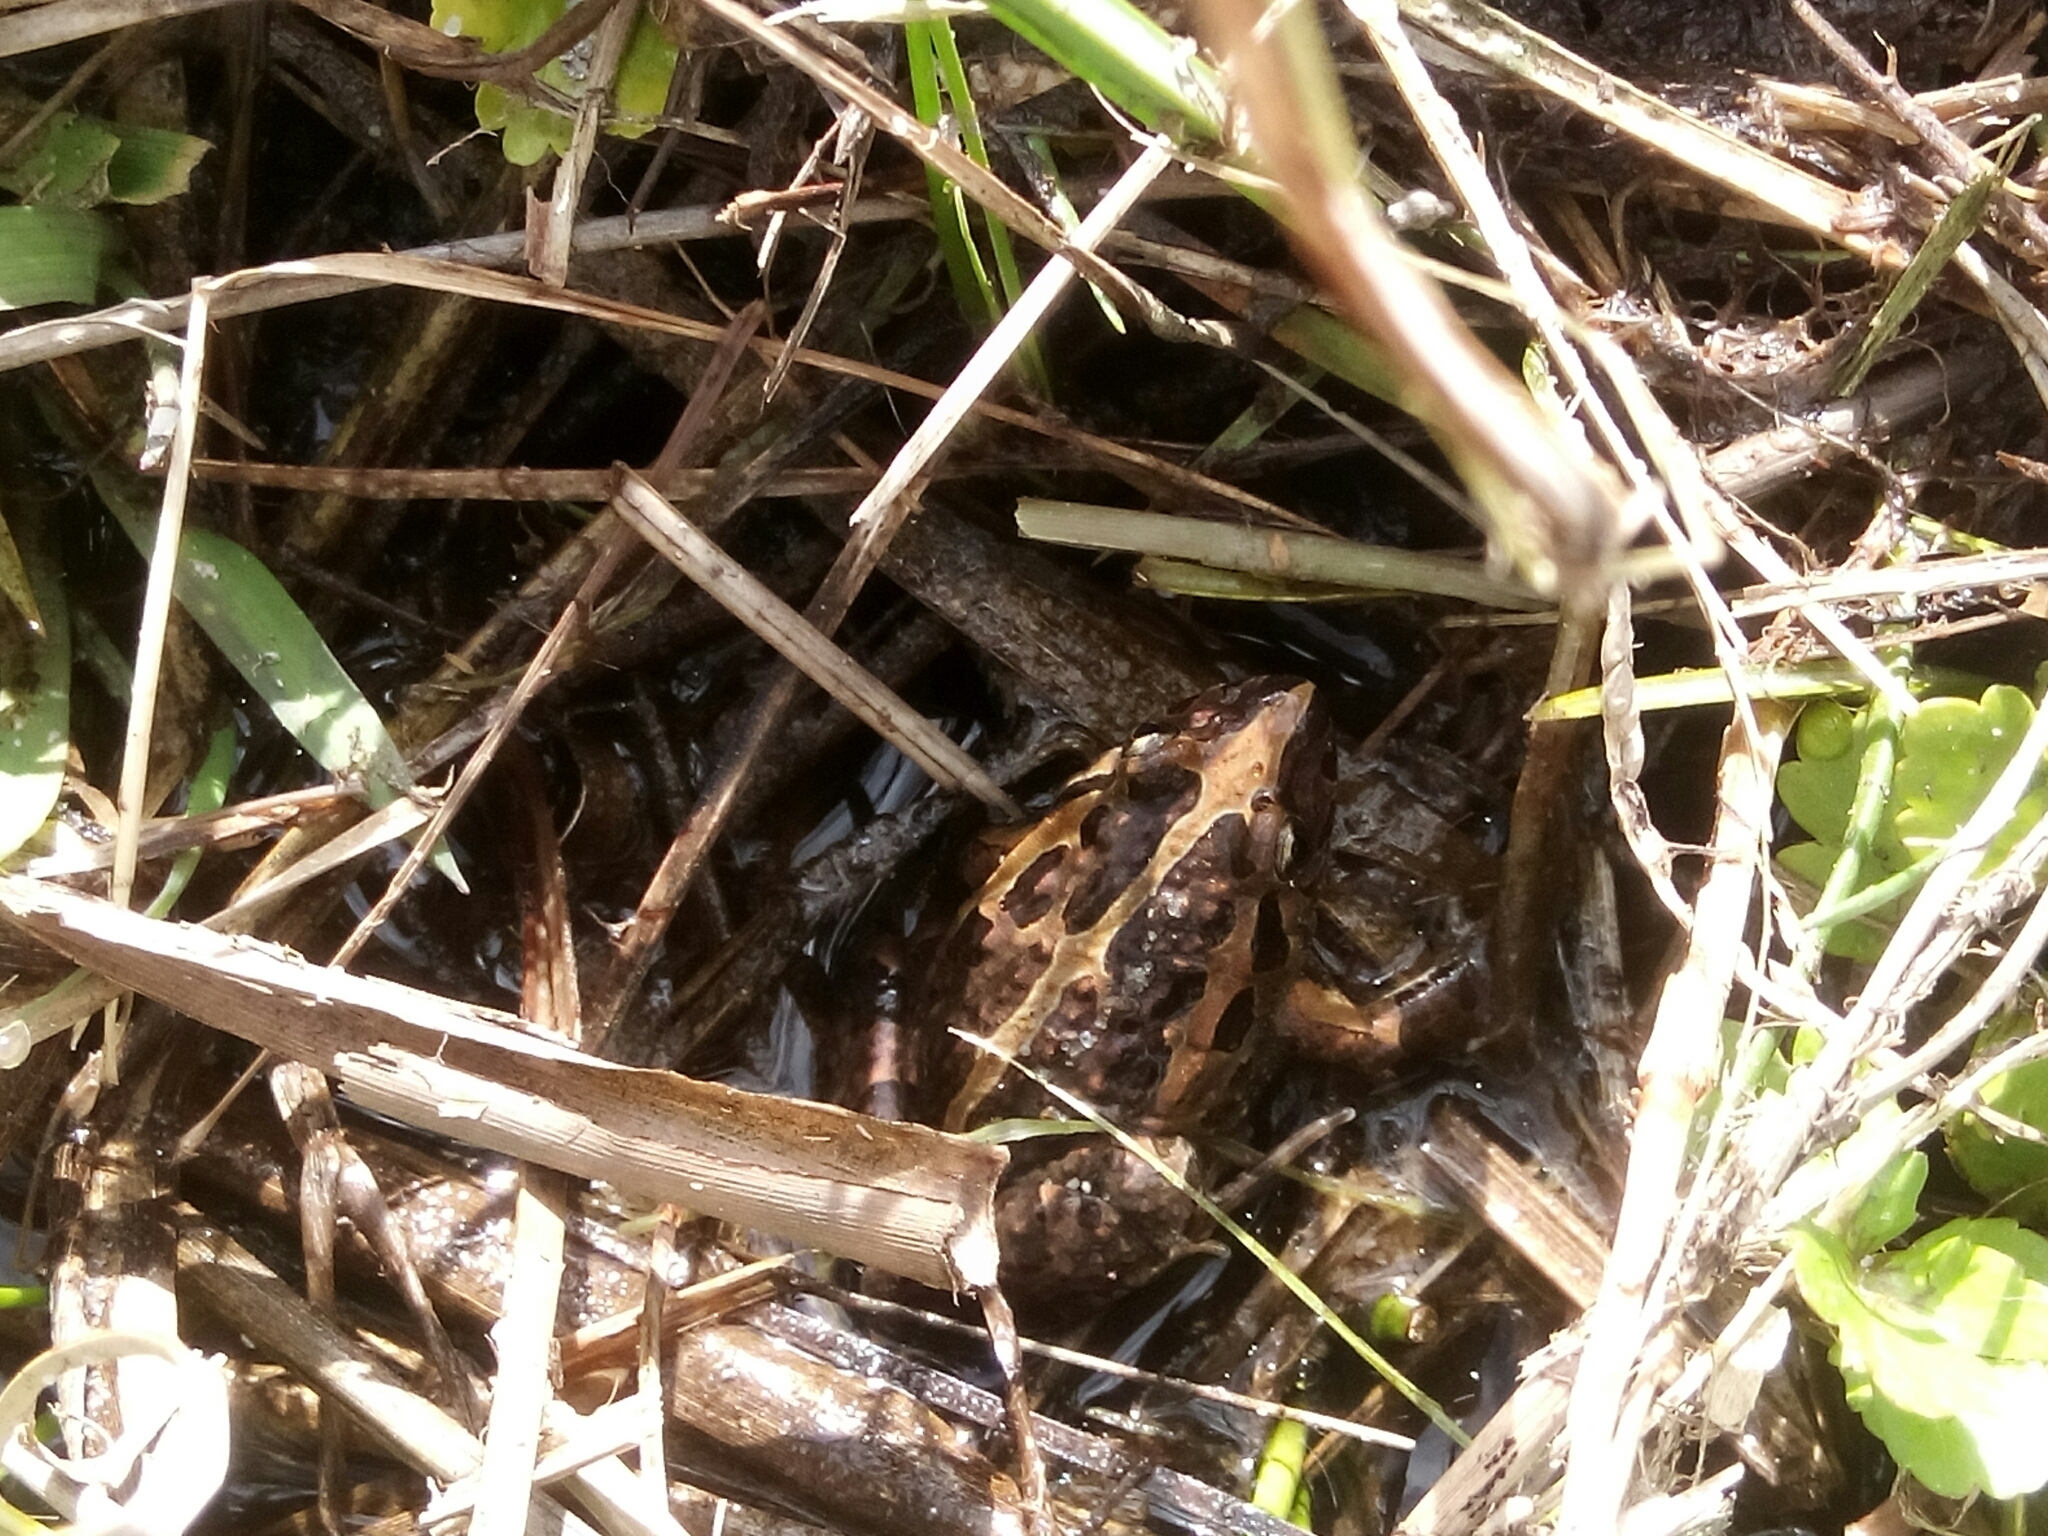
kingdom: Animalia
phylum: Chordata
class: Amphibia
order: Anura
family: Alytidae
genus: Discoglossus
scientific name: Discoglossus galganoi
